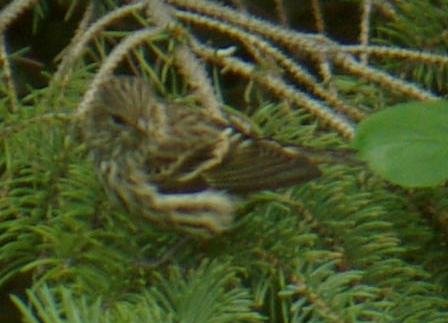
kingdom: Animalia
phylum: Chordata
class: Aves
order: Passeriformes
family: Fringillidae
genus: Spinus
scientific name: Spinus pinus
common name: Pine siskin
